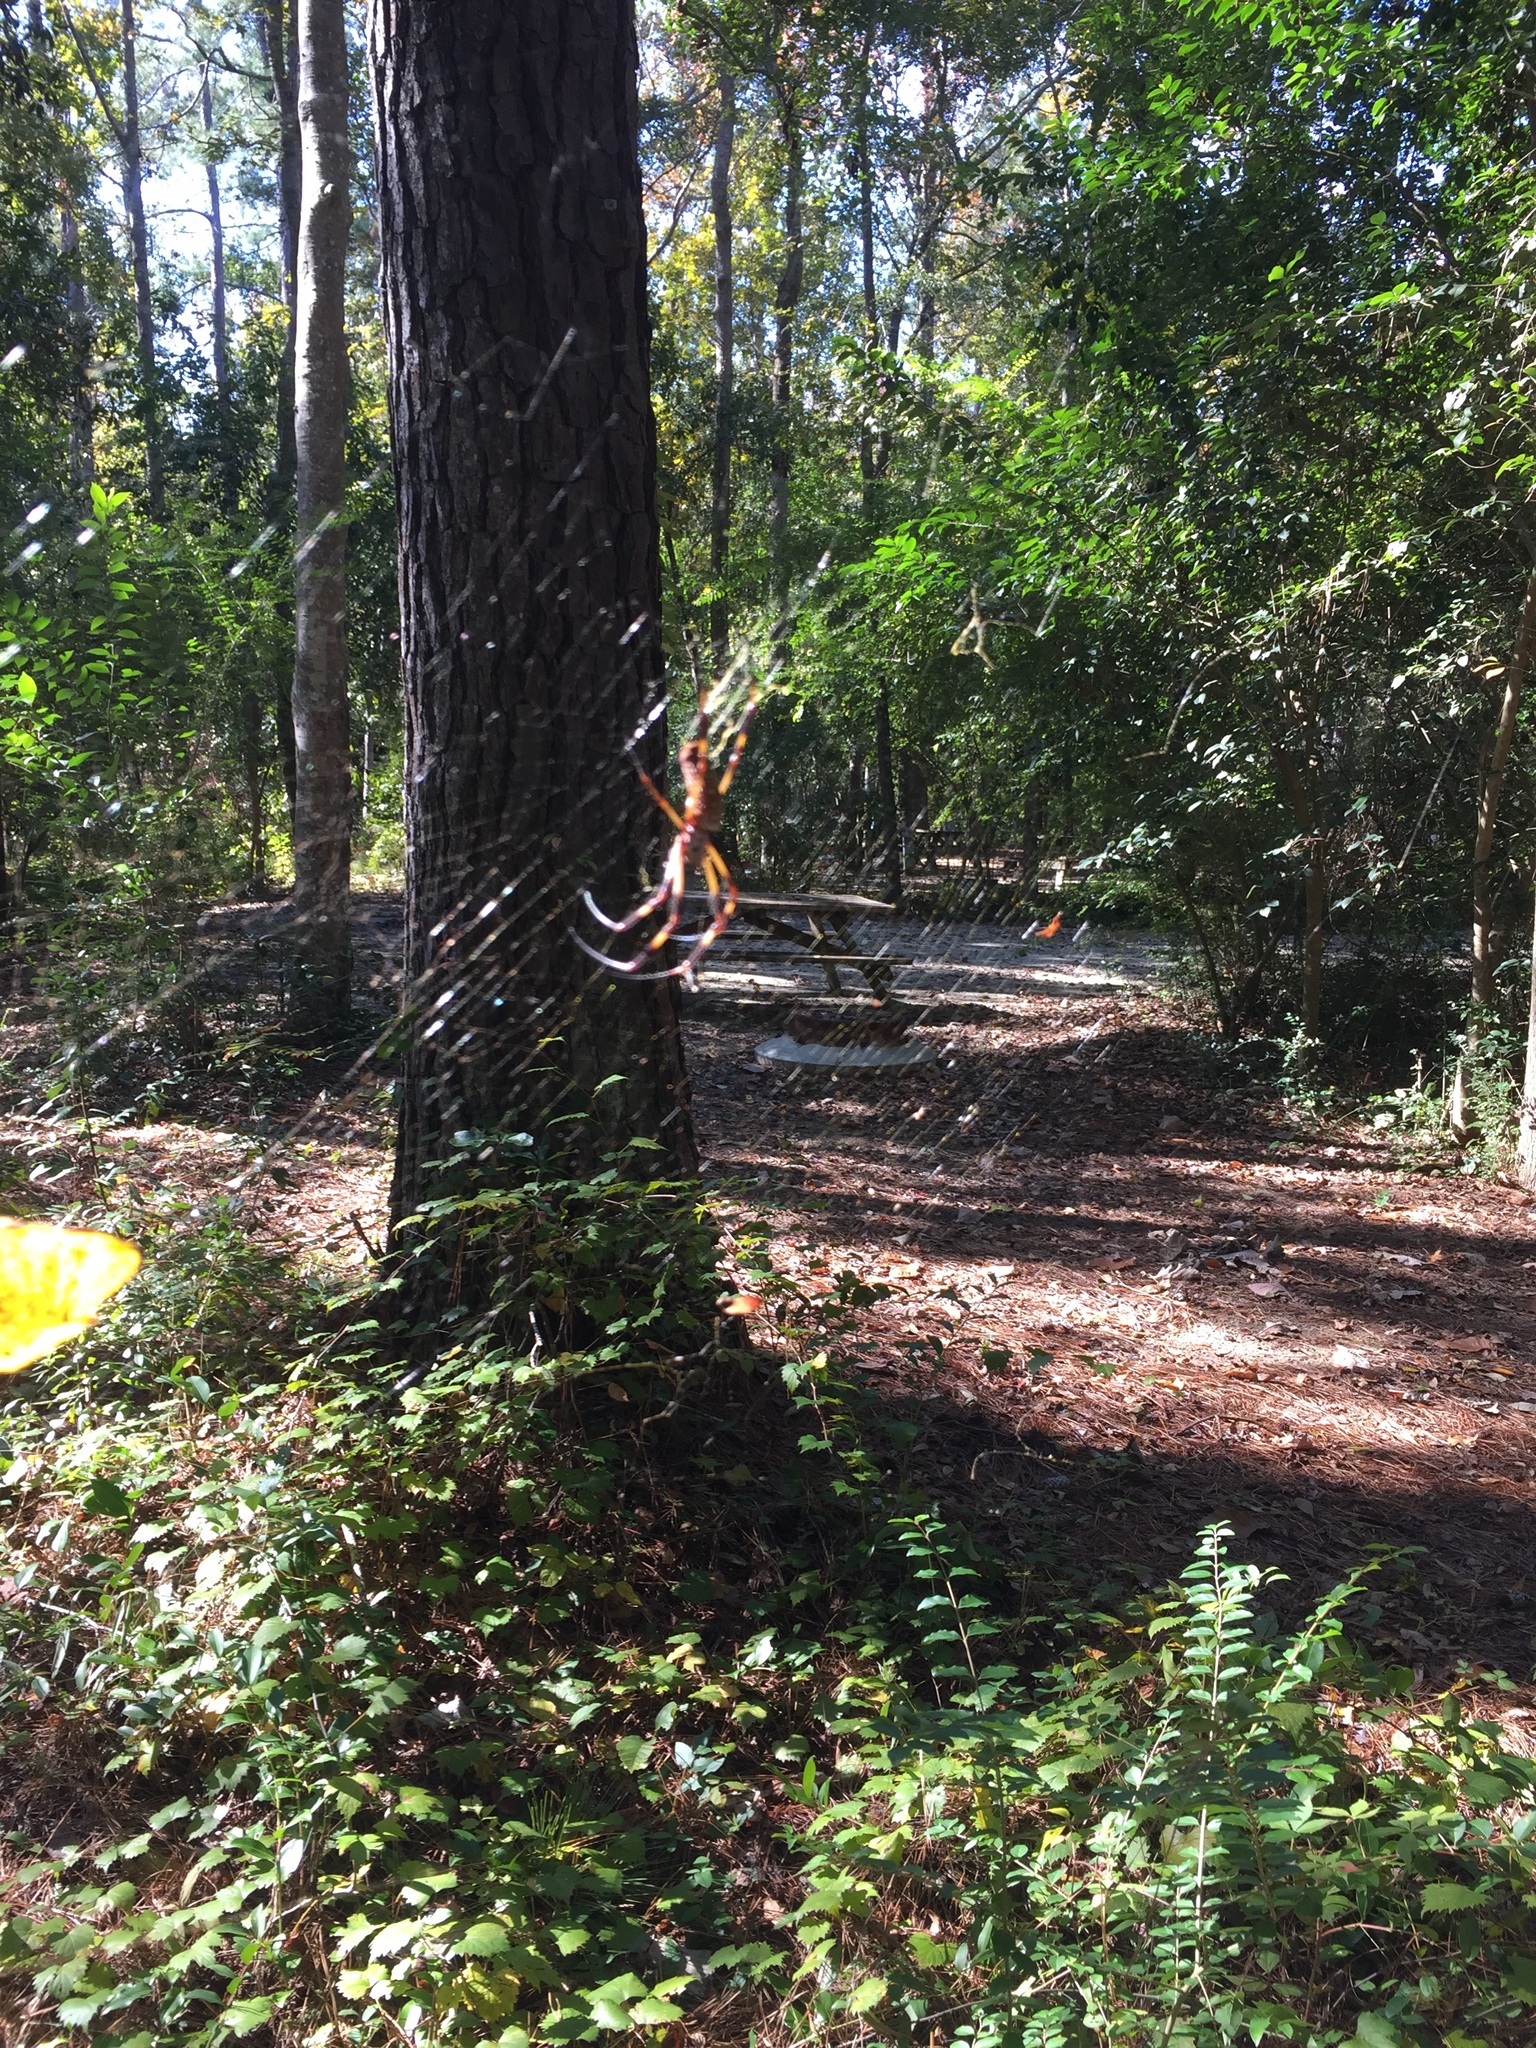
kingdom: Animalia
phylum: Arthropoda
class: Arachnida
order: Araneae
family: Araneidae
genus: Trichonephila
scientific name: Trichonephila clavipes
